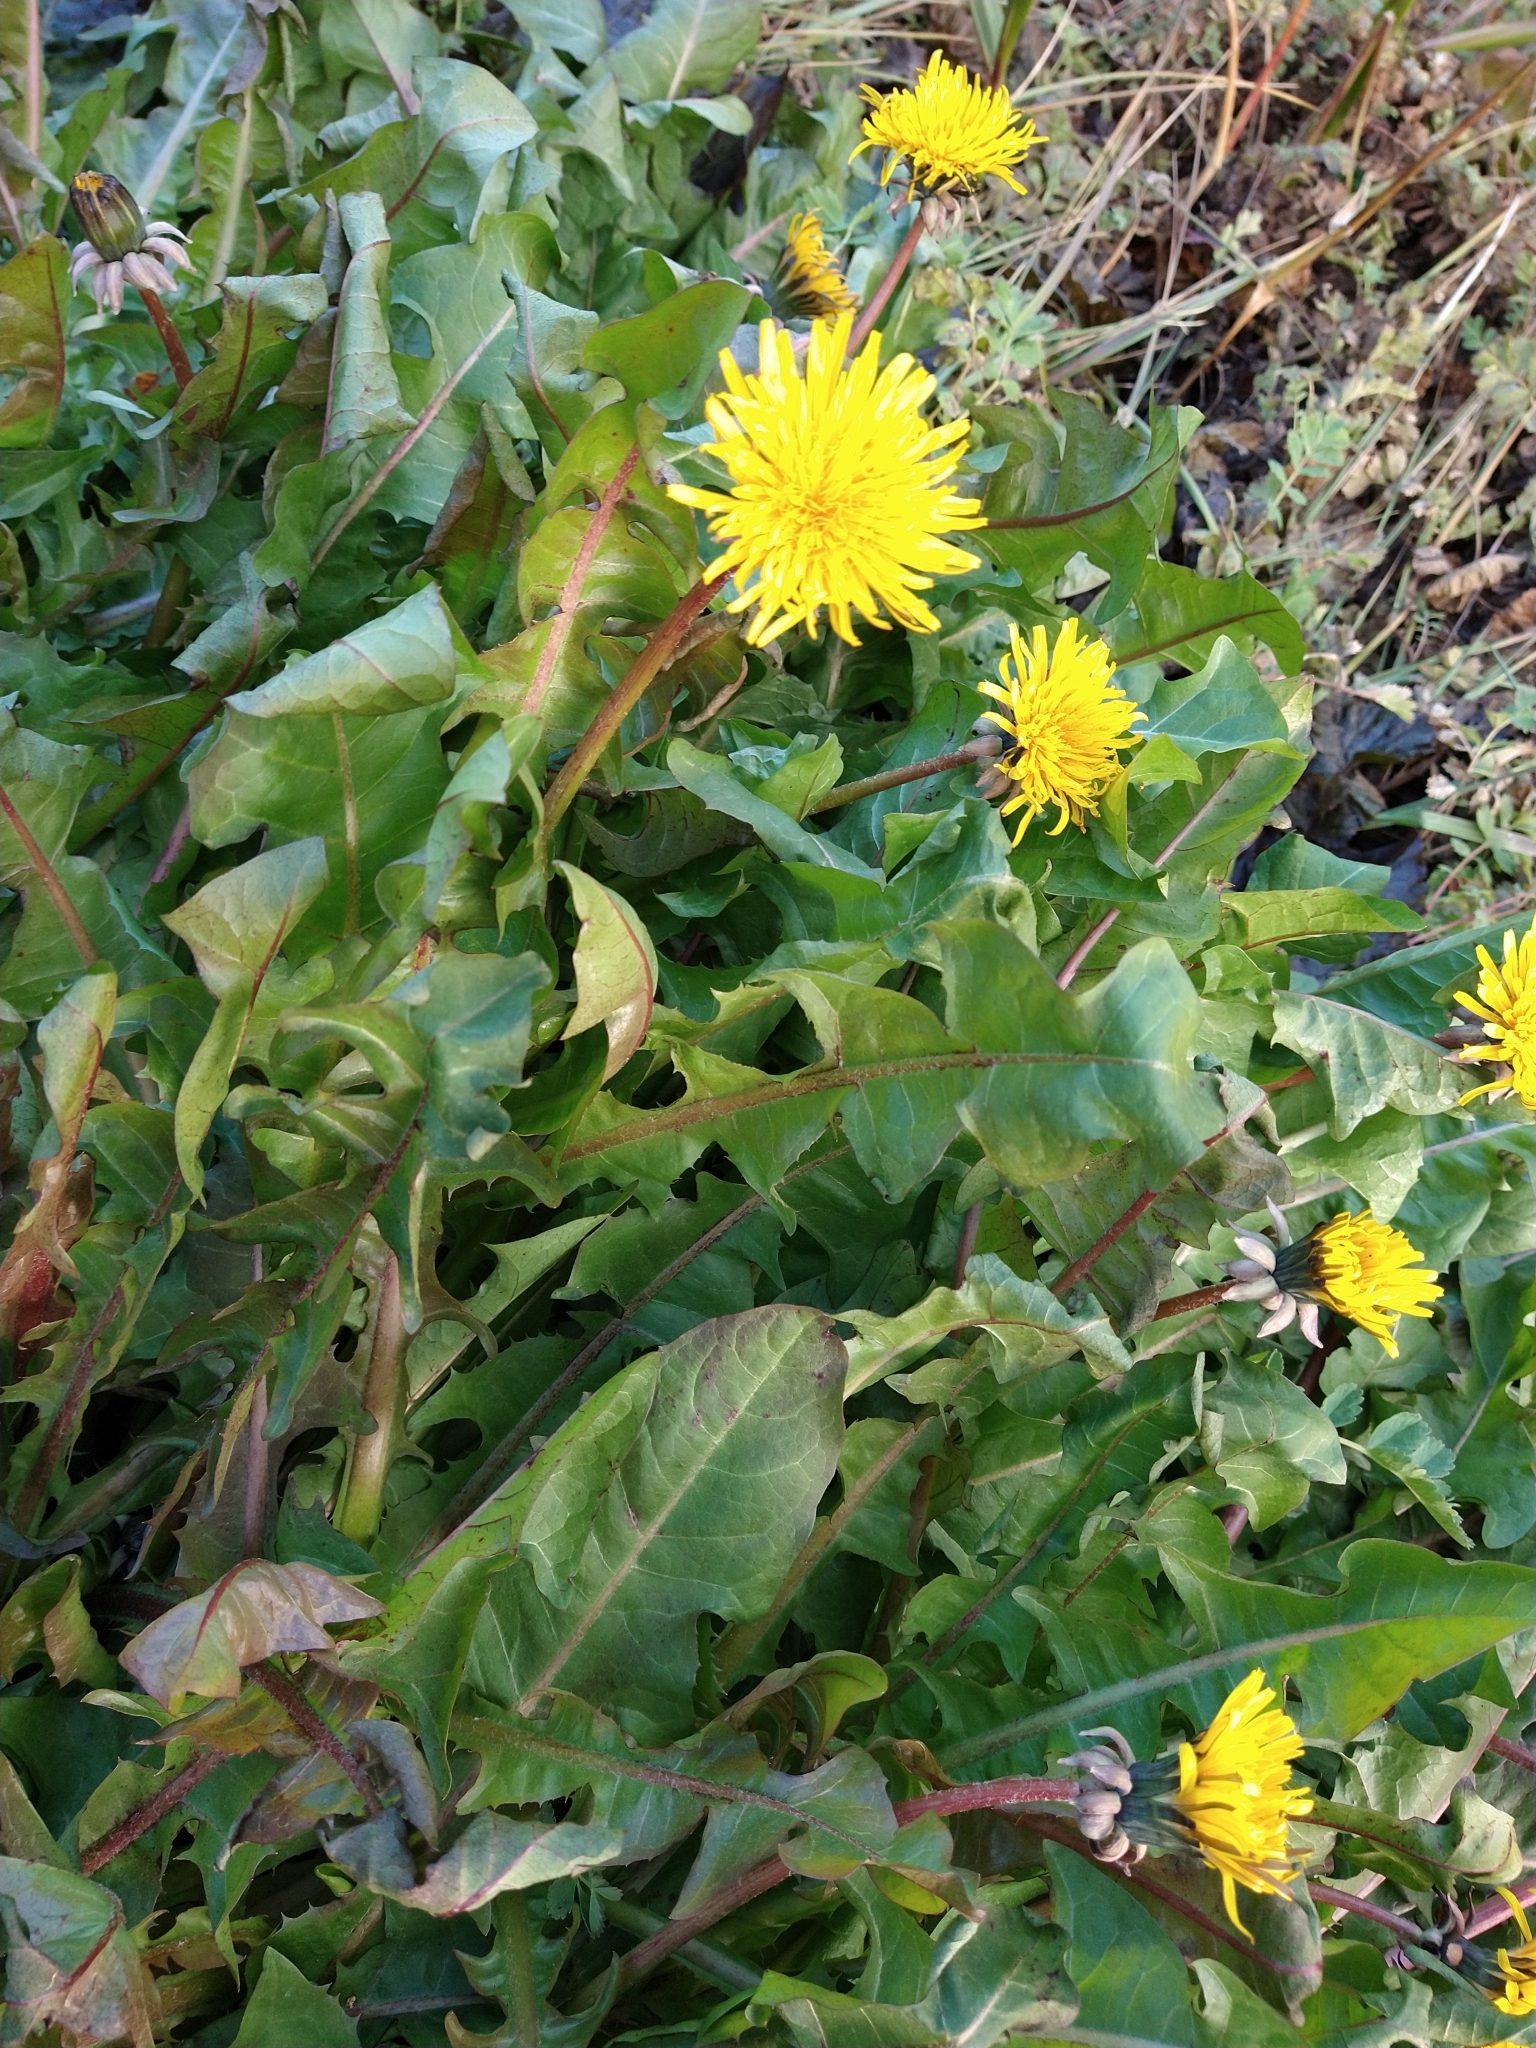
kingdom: Plantae
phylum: Tracheophyta
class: Magnoliopsida
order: Asterales
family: Asteraceae
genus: Taraxacum
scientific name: Taraxacum officinale
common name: Common dandelion
